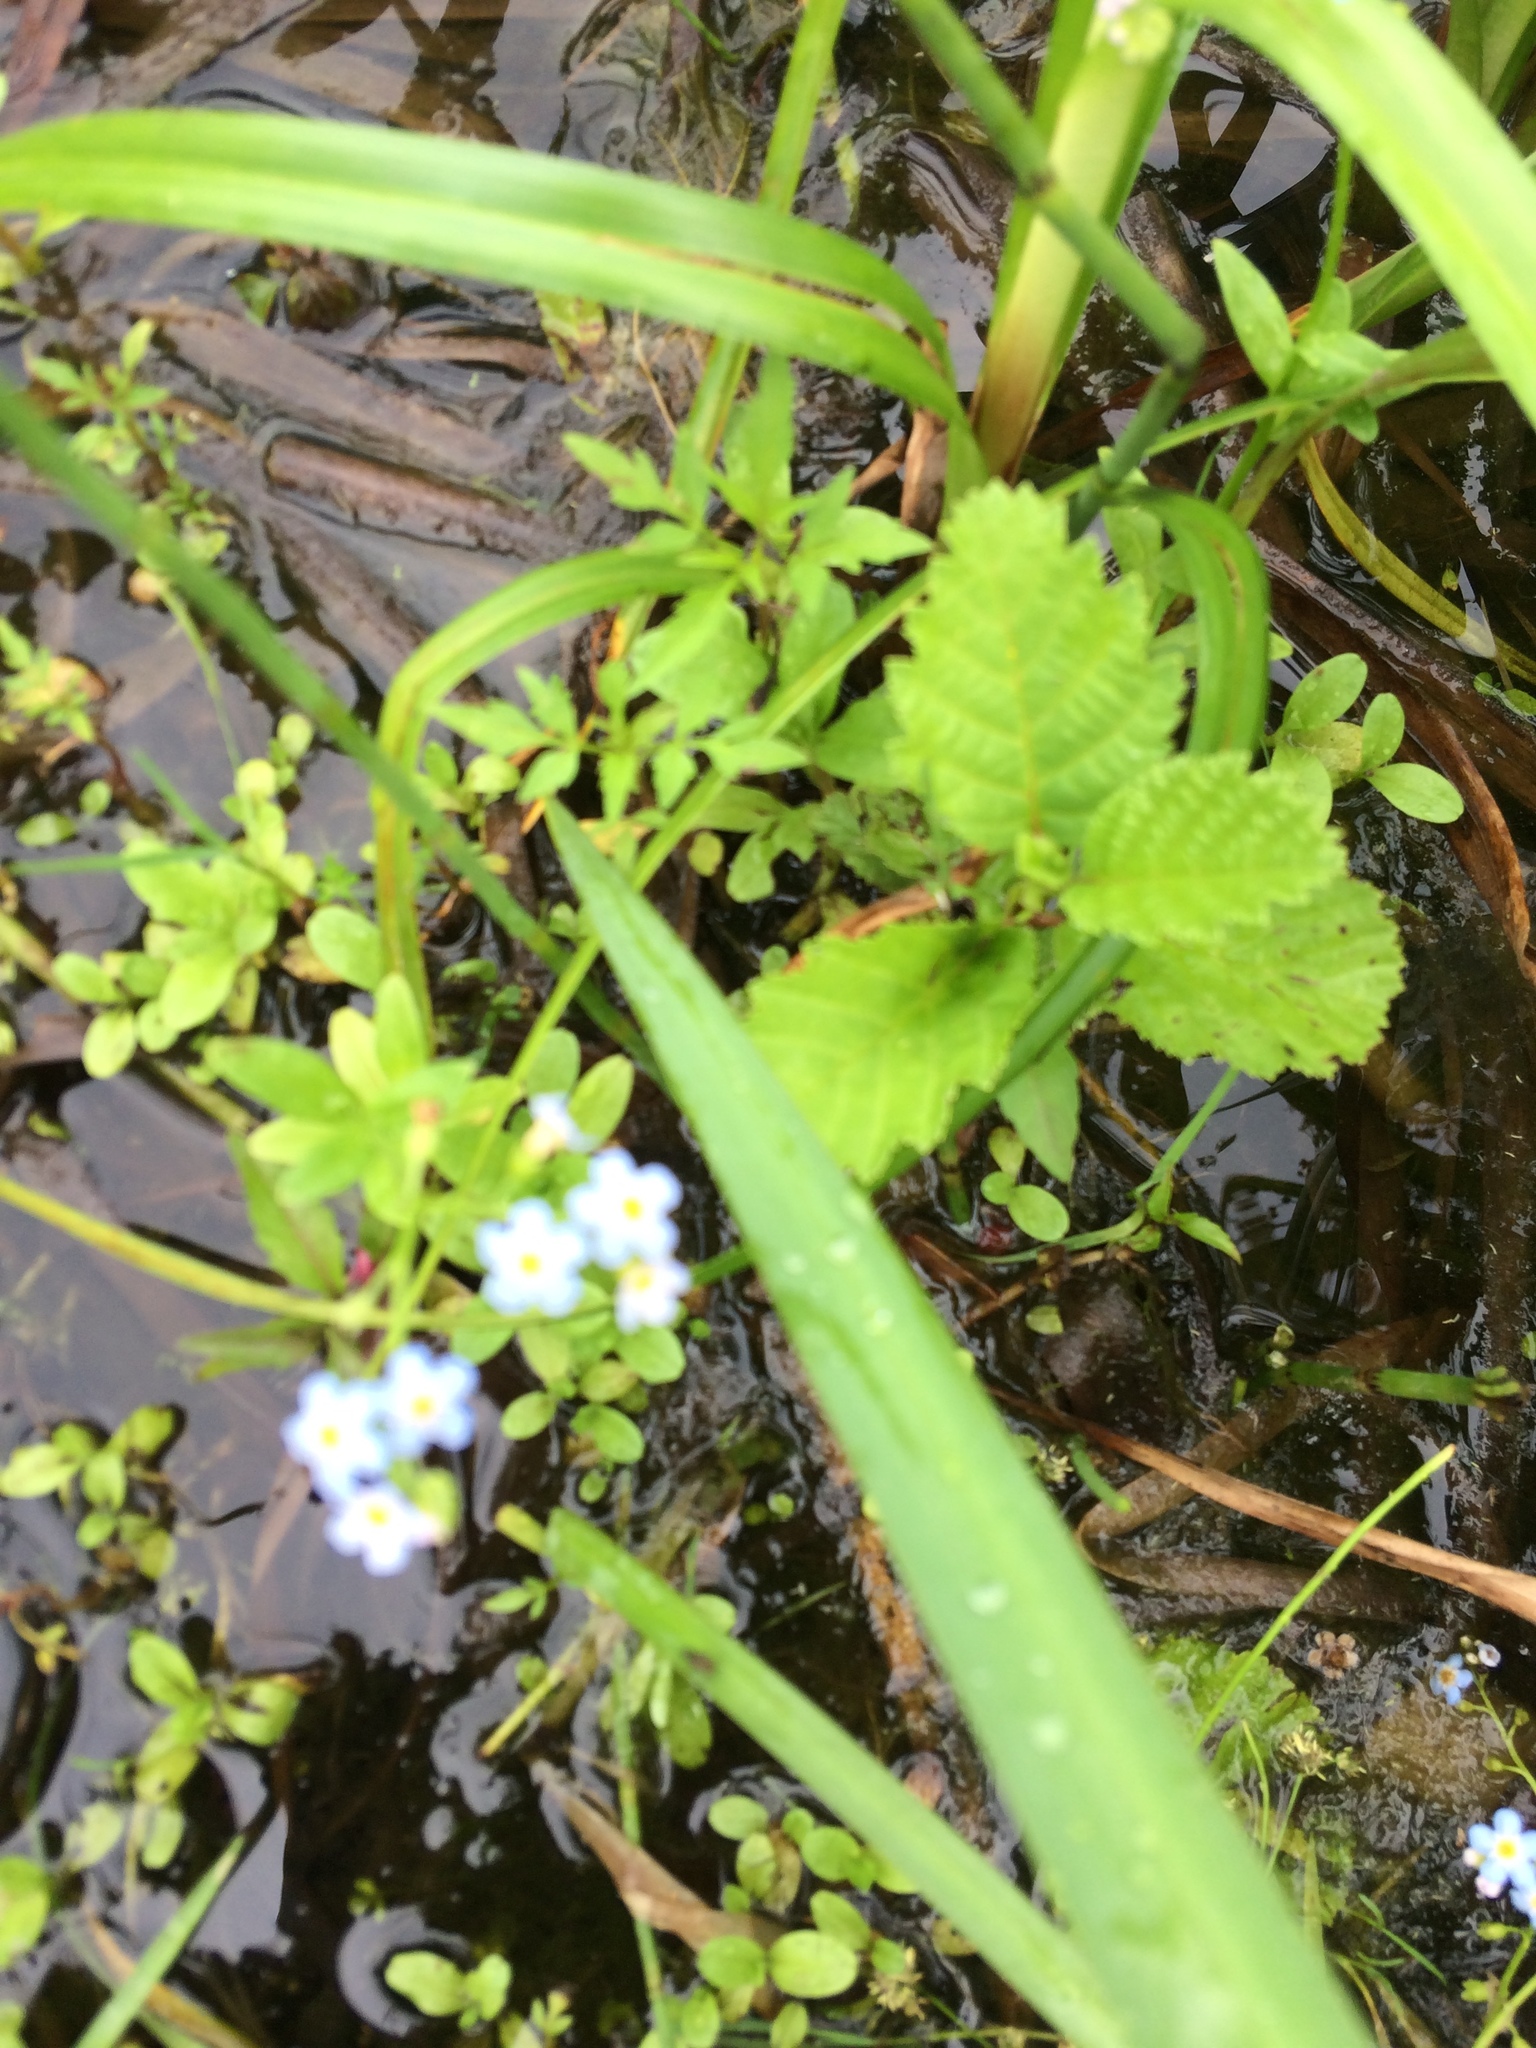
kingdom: Plantae
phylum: Tracheophyta
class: Magnoliopsida
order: Boraginales
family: Boraginaceae
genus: Myosotis
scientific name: Myosotis scorpioides
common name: Water forget-me-not
